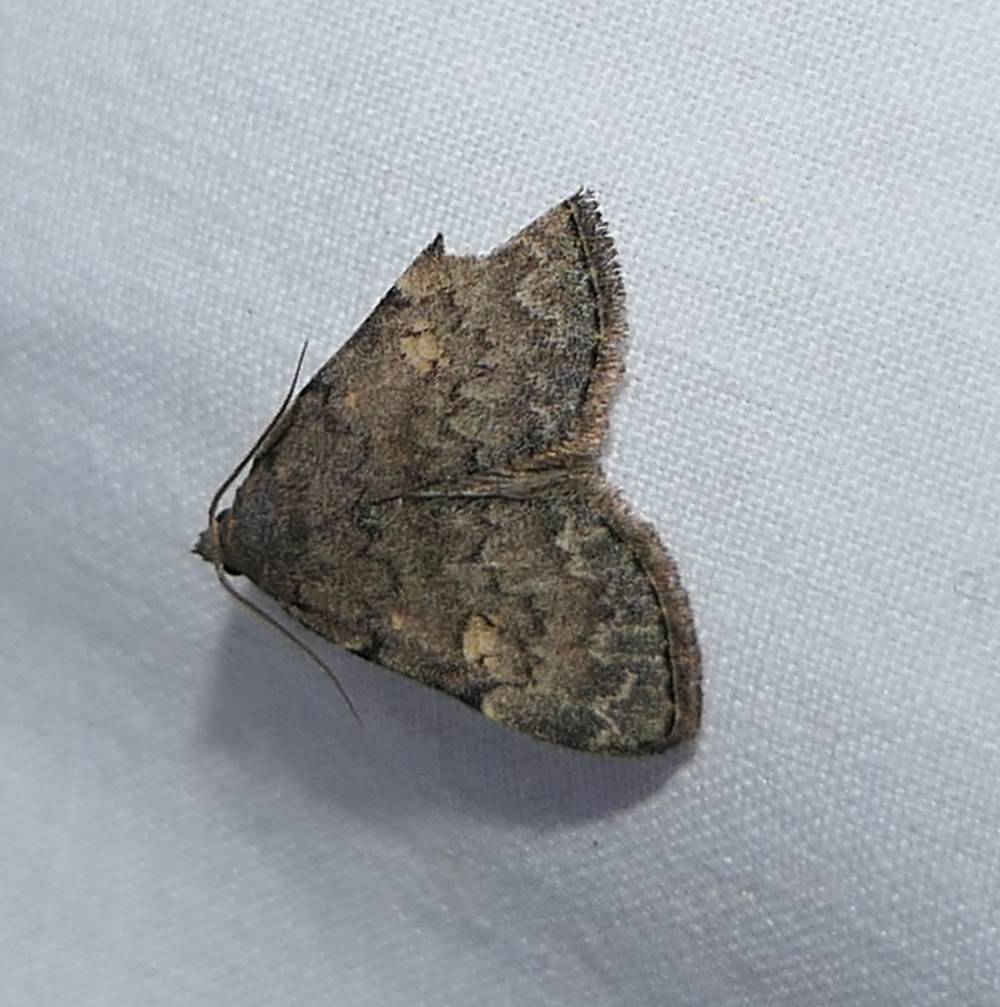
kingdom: Animalia
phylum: Arthropoda
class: Insecta
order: Lepidoptera
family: Erebidae
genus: Idia
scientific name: Idia aemula
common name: Common idia moth
